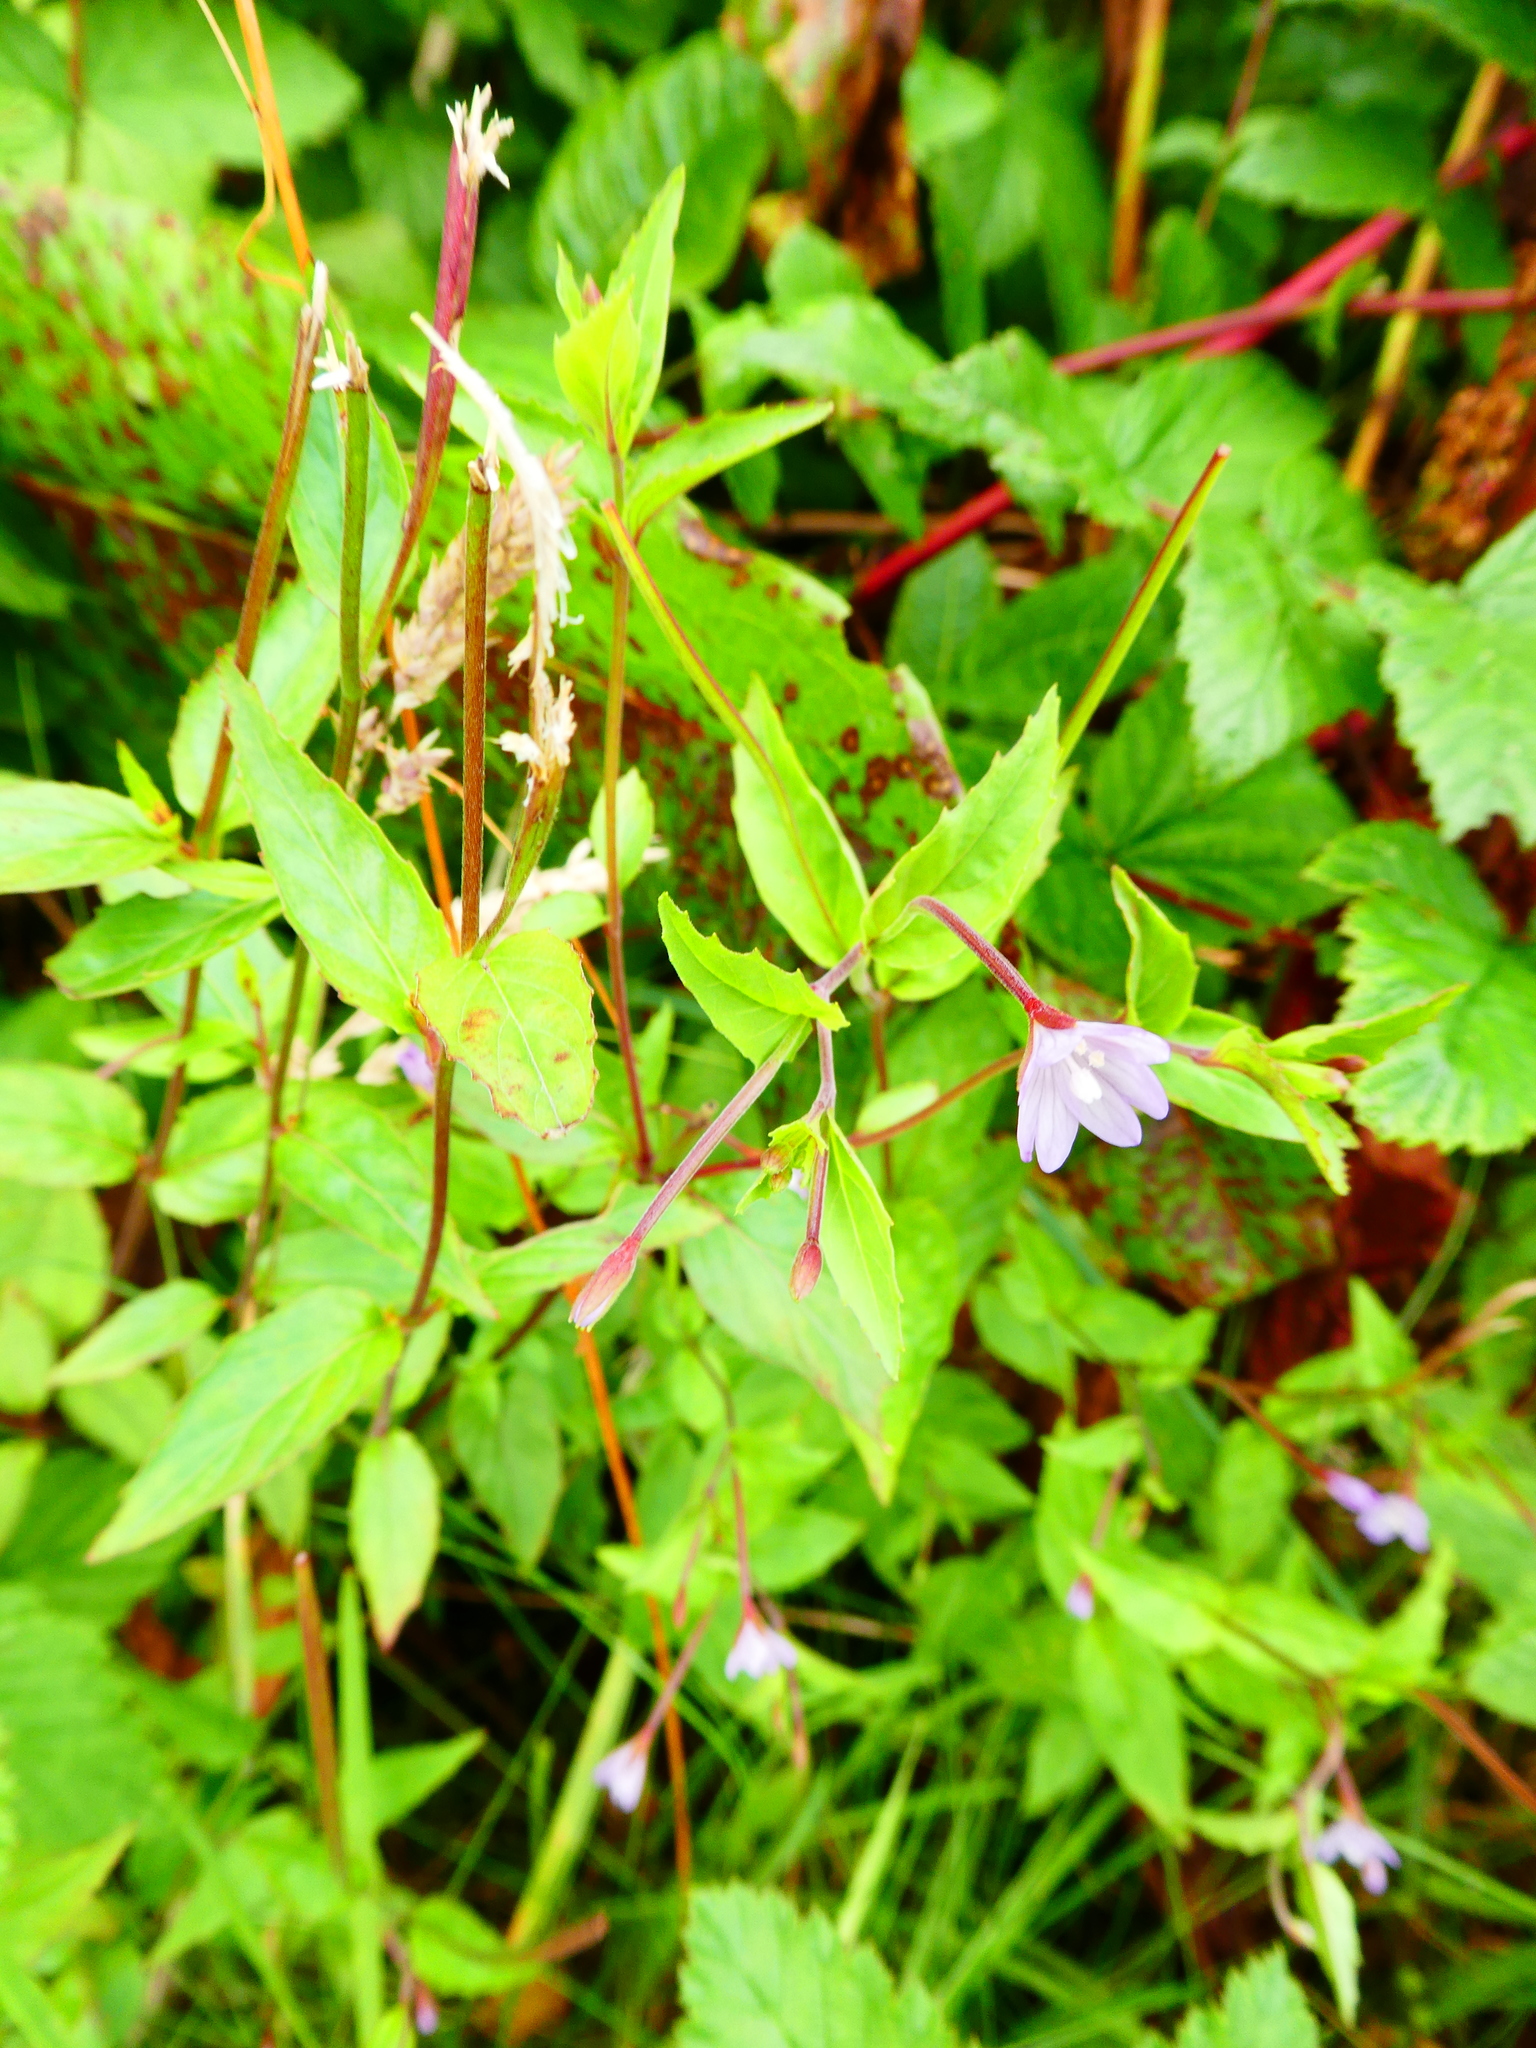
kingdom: Plantae
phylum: Tracheophyta
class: Magnoliopsida
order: Myrtales
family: Onagraceae
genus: Epilobium
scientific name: Epilobium montanum
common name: Broad-leaved willowherb
